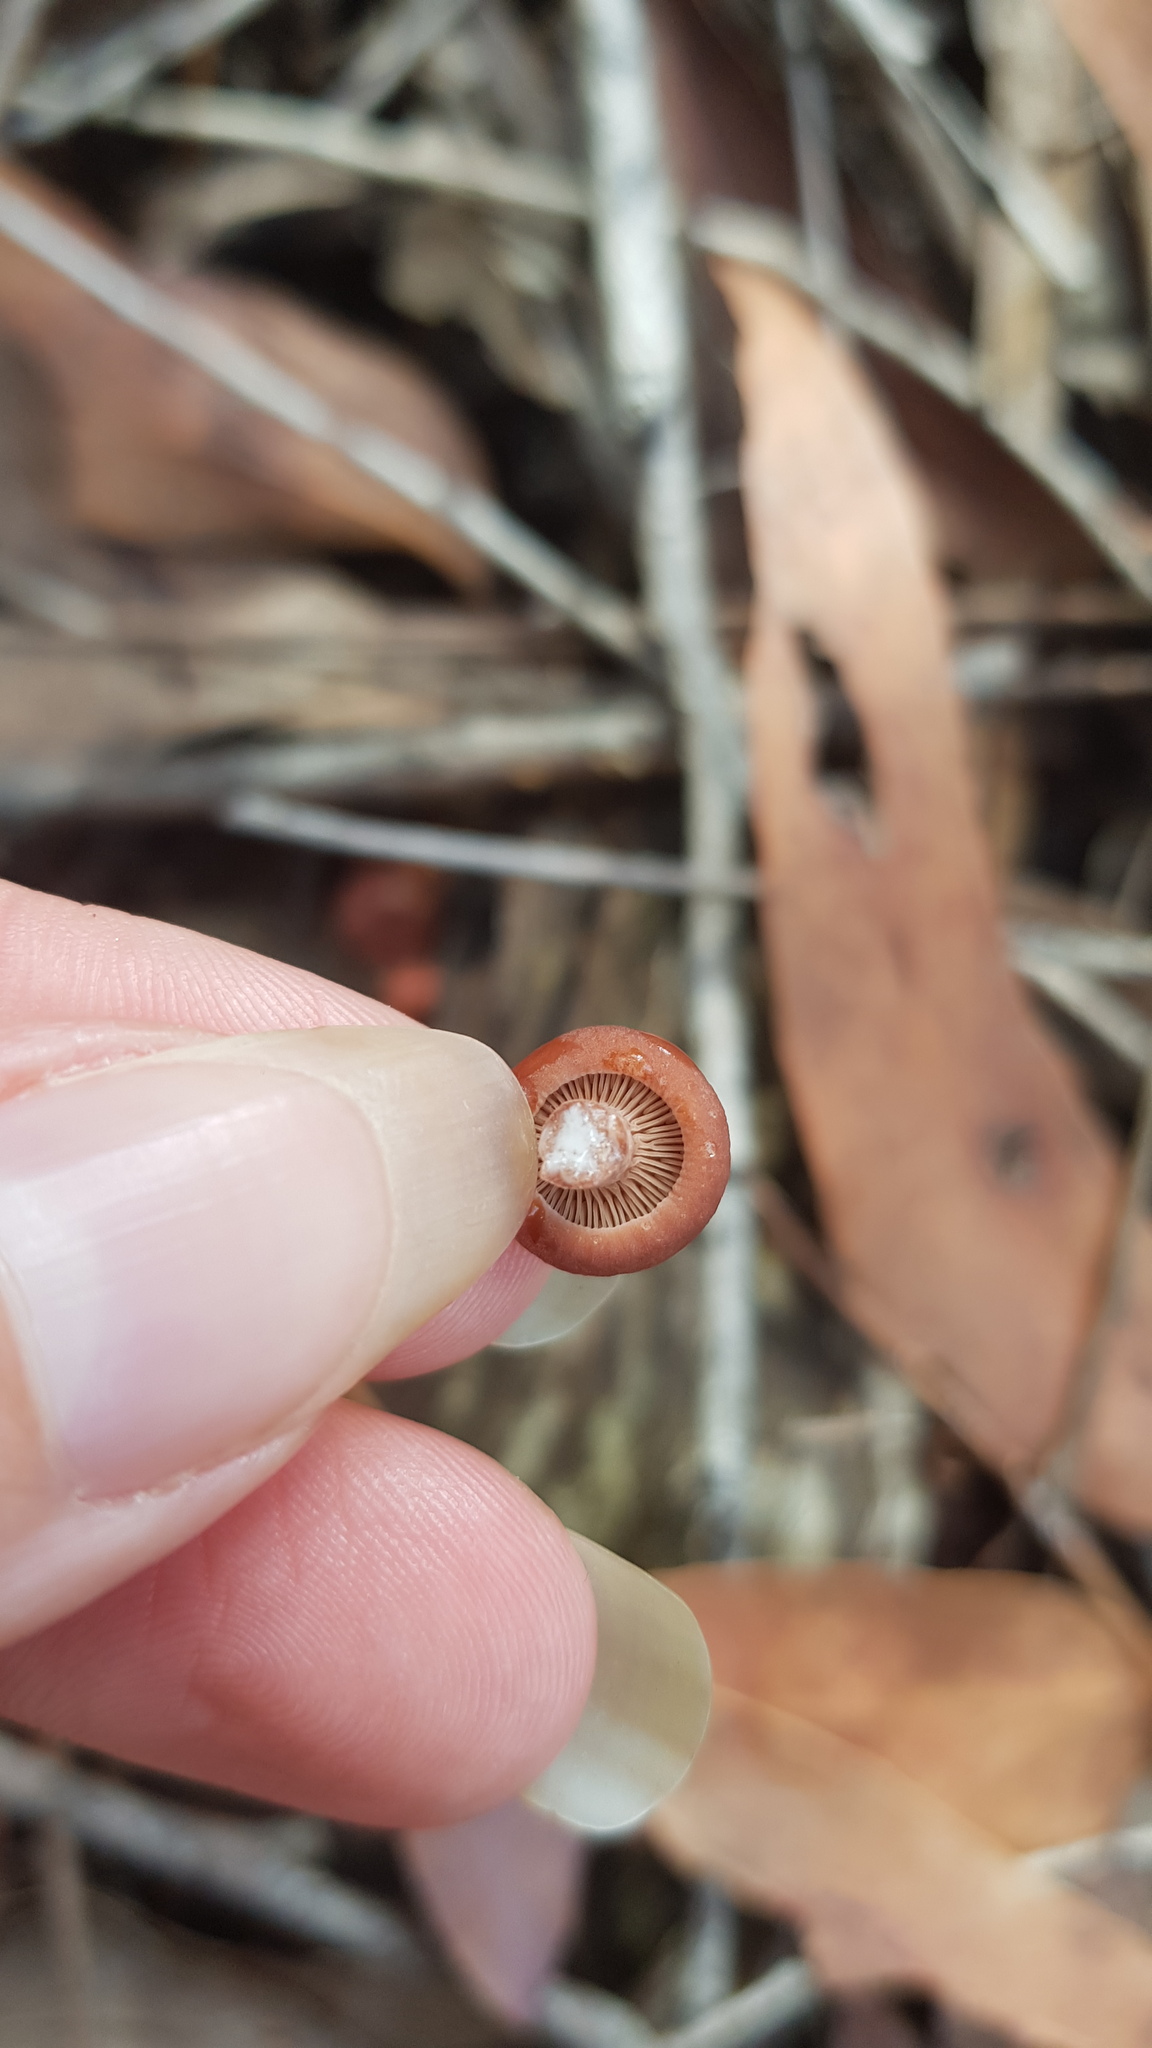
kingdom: Fungi
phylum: Basidiomycota
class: Agaricomycetes
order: Russulales
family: Russulaceae
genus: Lactarius
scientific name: Lactarius eucalypti
